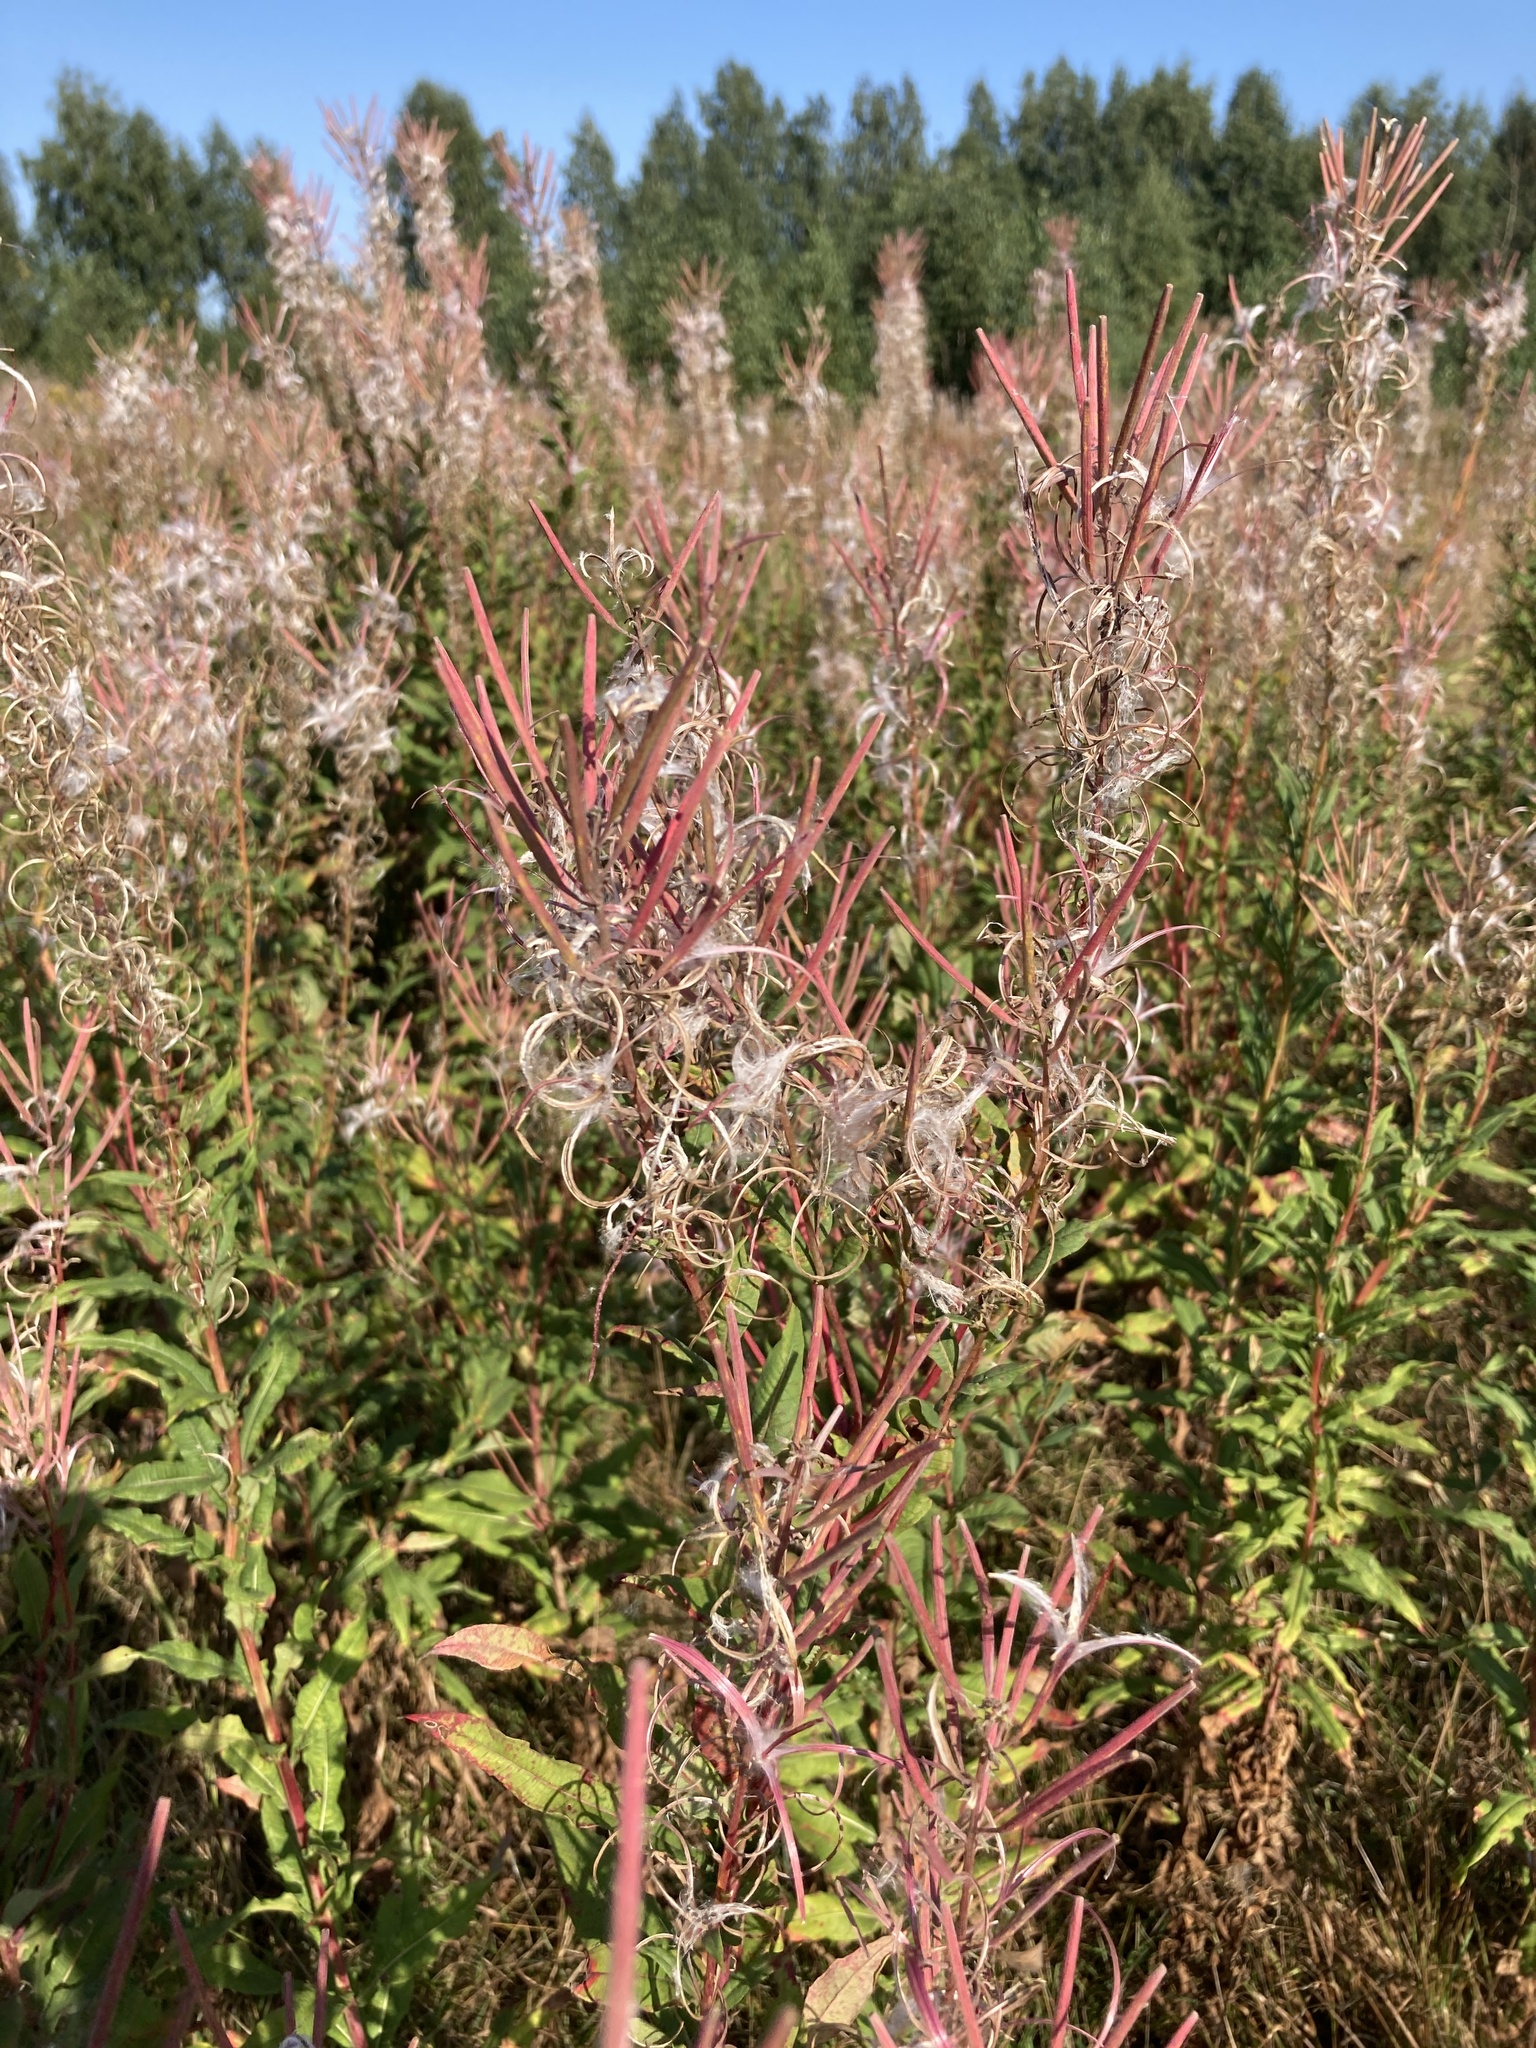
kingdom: Plantae
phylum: Tracheophyta
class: Magnoliopsida
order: Myrtales
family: Onagraceae
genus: Chamaenerion
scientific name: Chamaenerion angustifolium
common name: Fireweed
